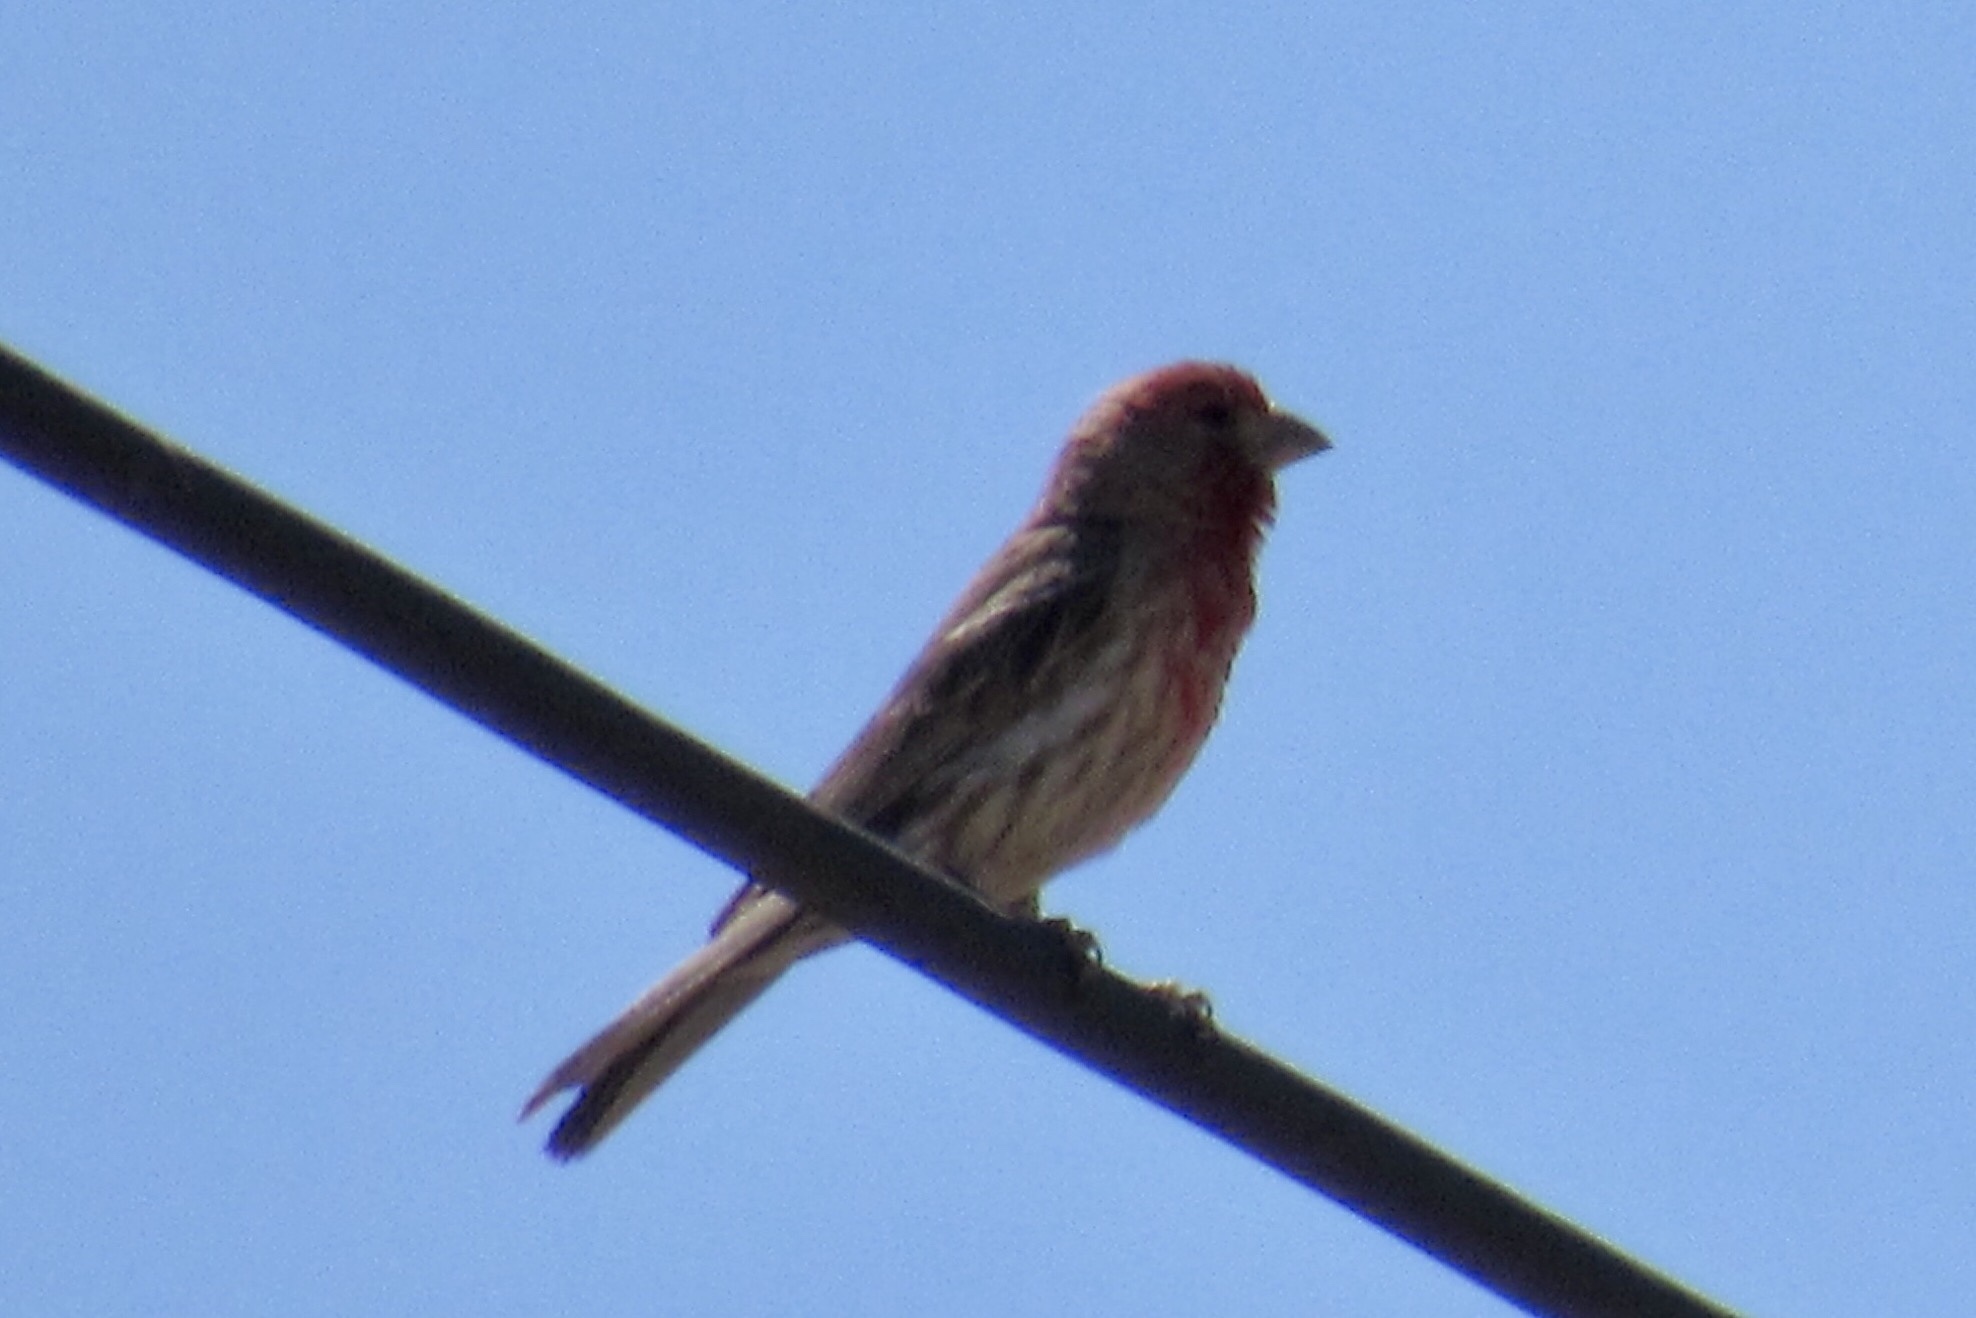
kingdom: Animalia
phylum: Chordata
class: Aves
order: Passeriformes
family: Fringillidae
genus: Haemorhous
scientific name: Haemorhous mexicanus
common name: House finch
